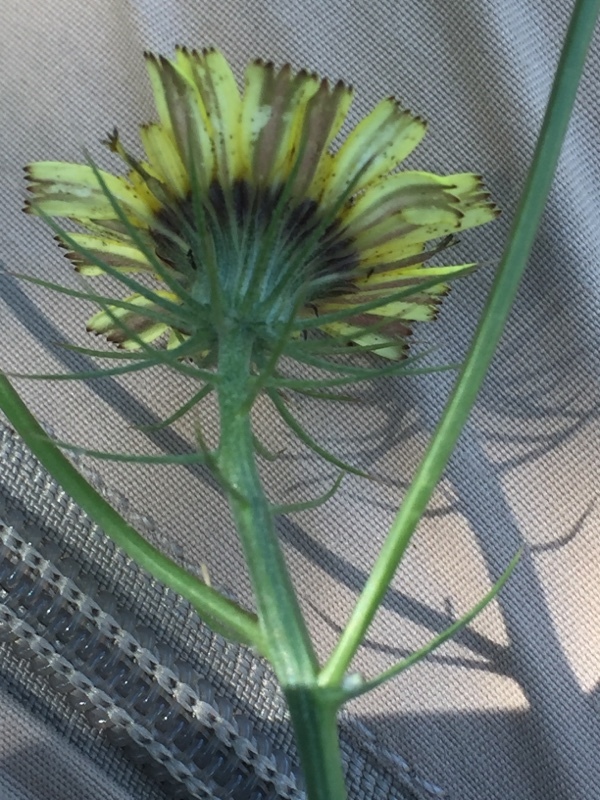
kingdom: Plantae
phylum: Tracheophyta
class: Magnoliopsida
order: Asterales
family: Asteraceae
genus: Tolpis
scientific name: Tolpis barbata
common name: Yellow hawkweed
